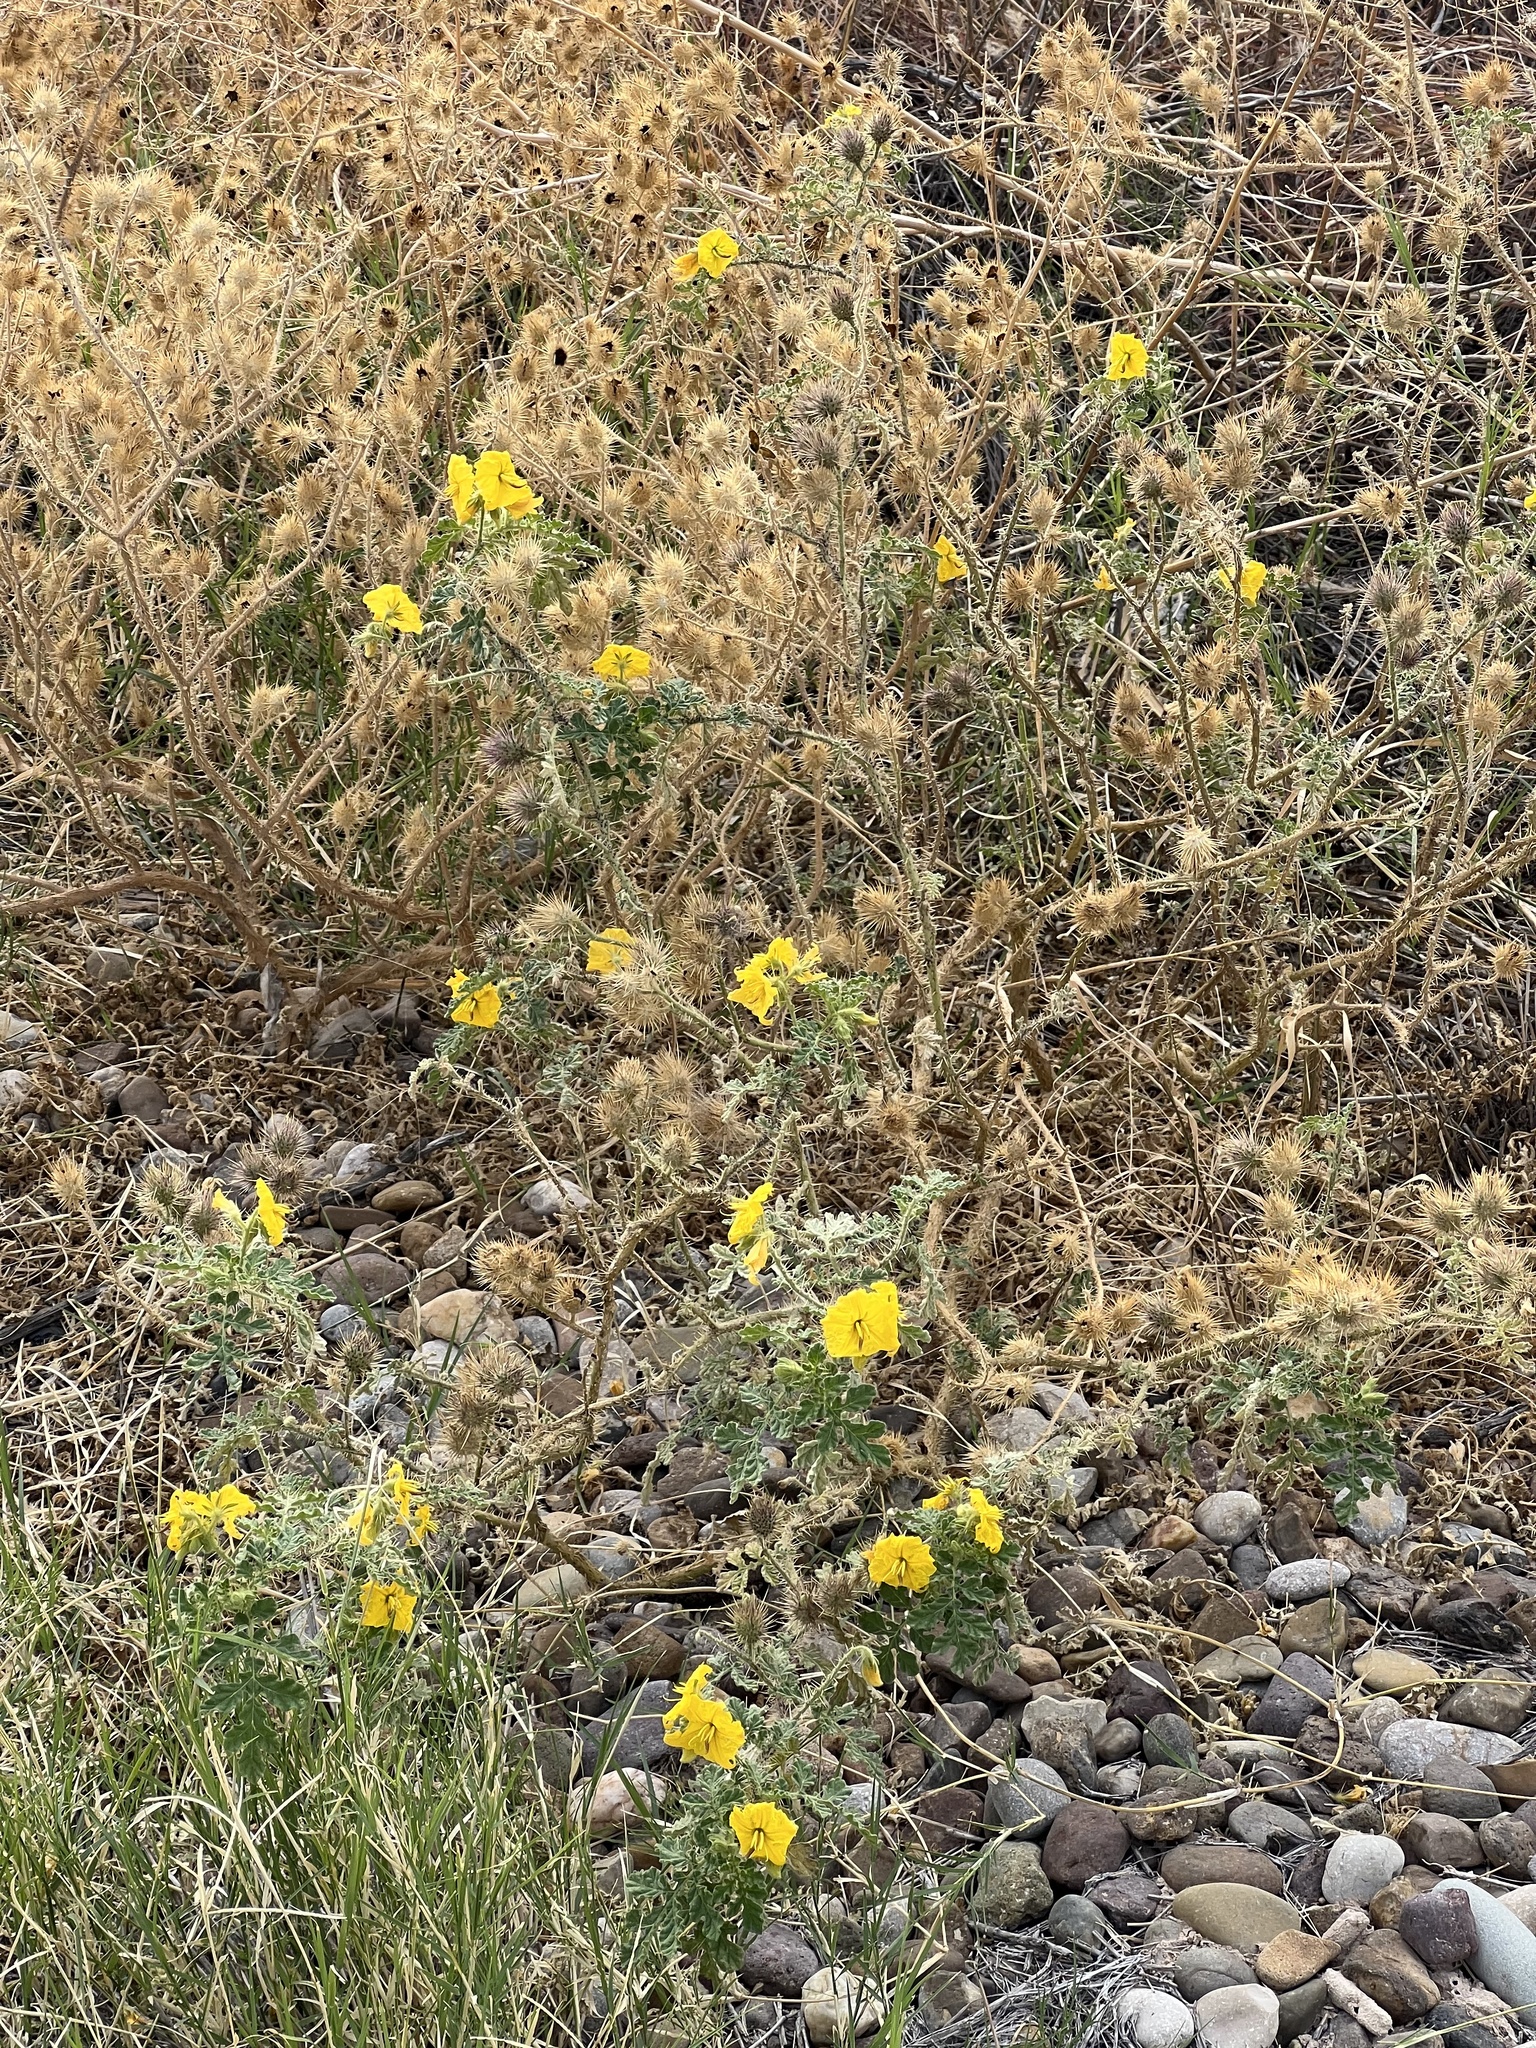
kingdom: Plantae
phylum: Tracheophyta
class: Magnoliopsida
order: Solanales
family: Solanaceae
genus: Solanum
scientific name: Solanum angustifolium
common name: Buffalobur nightshade
